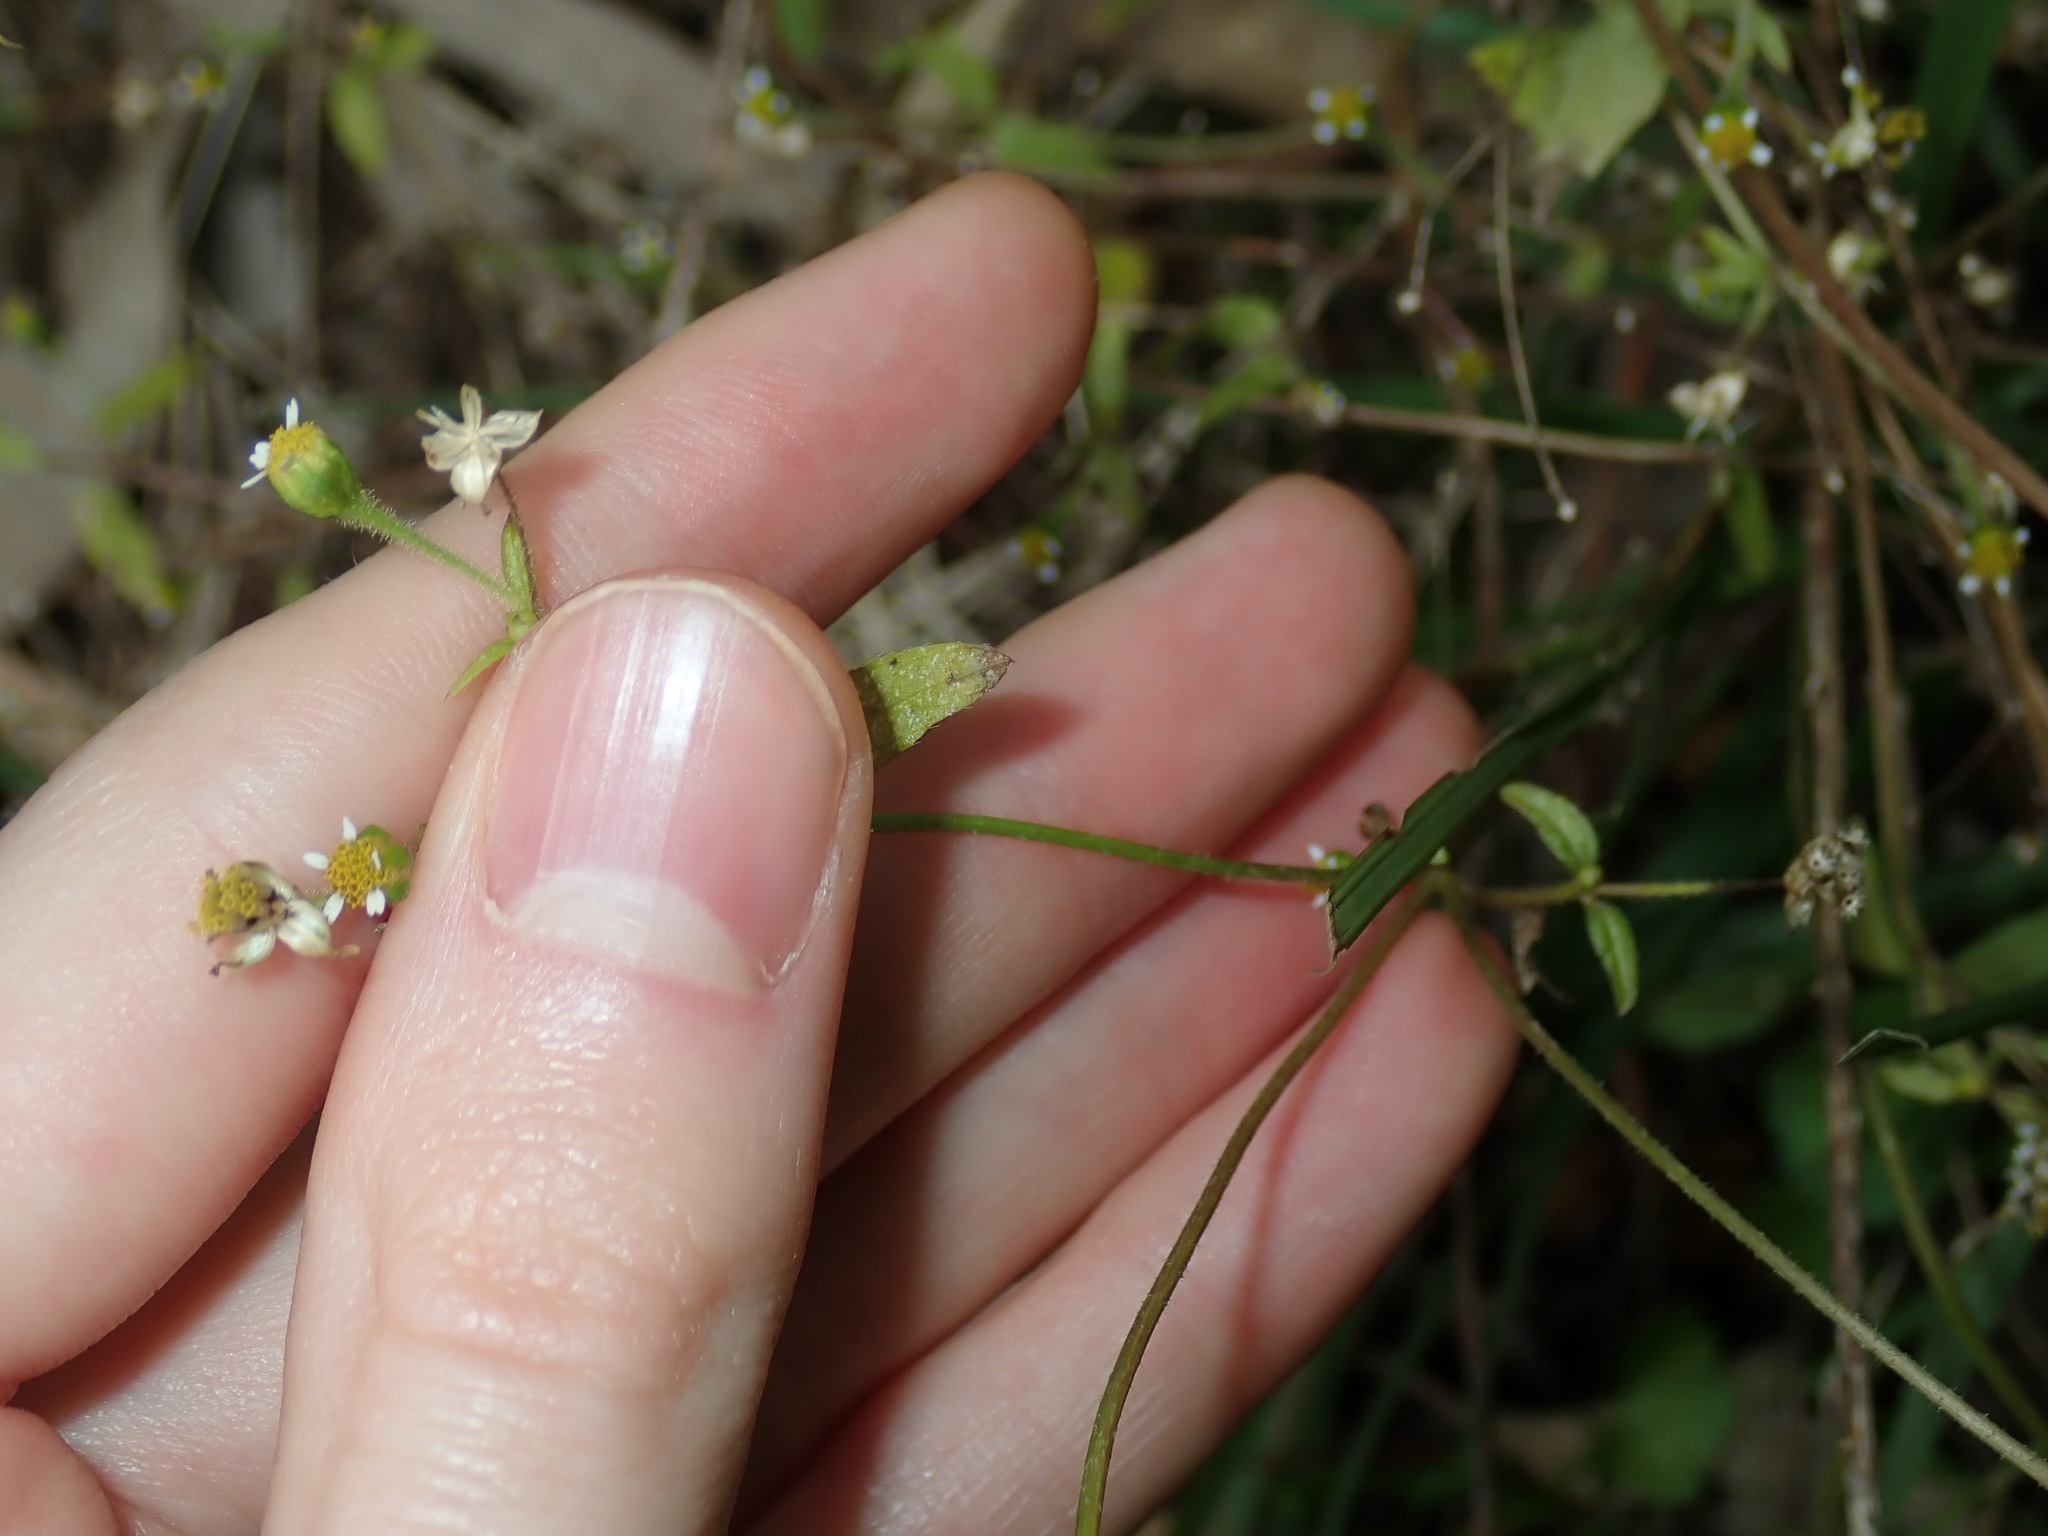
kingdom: Plantae
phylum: Tracheophyta
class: Magnoliopsida
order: Asterales
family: Asteraceae
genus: Galinsoga
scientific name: Galinsoga parviflora
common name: Gallant soldier
